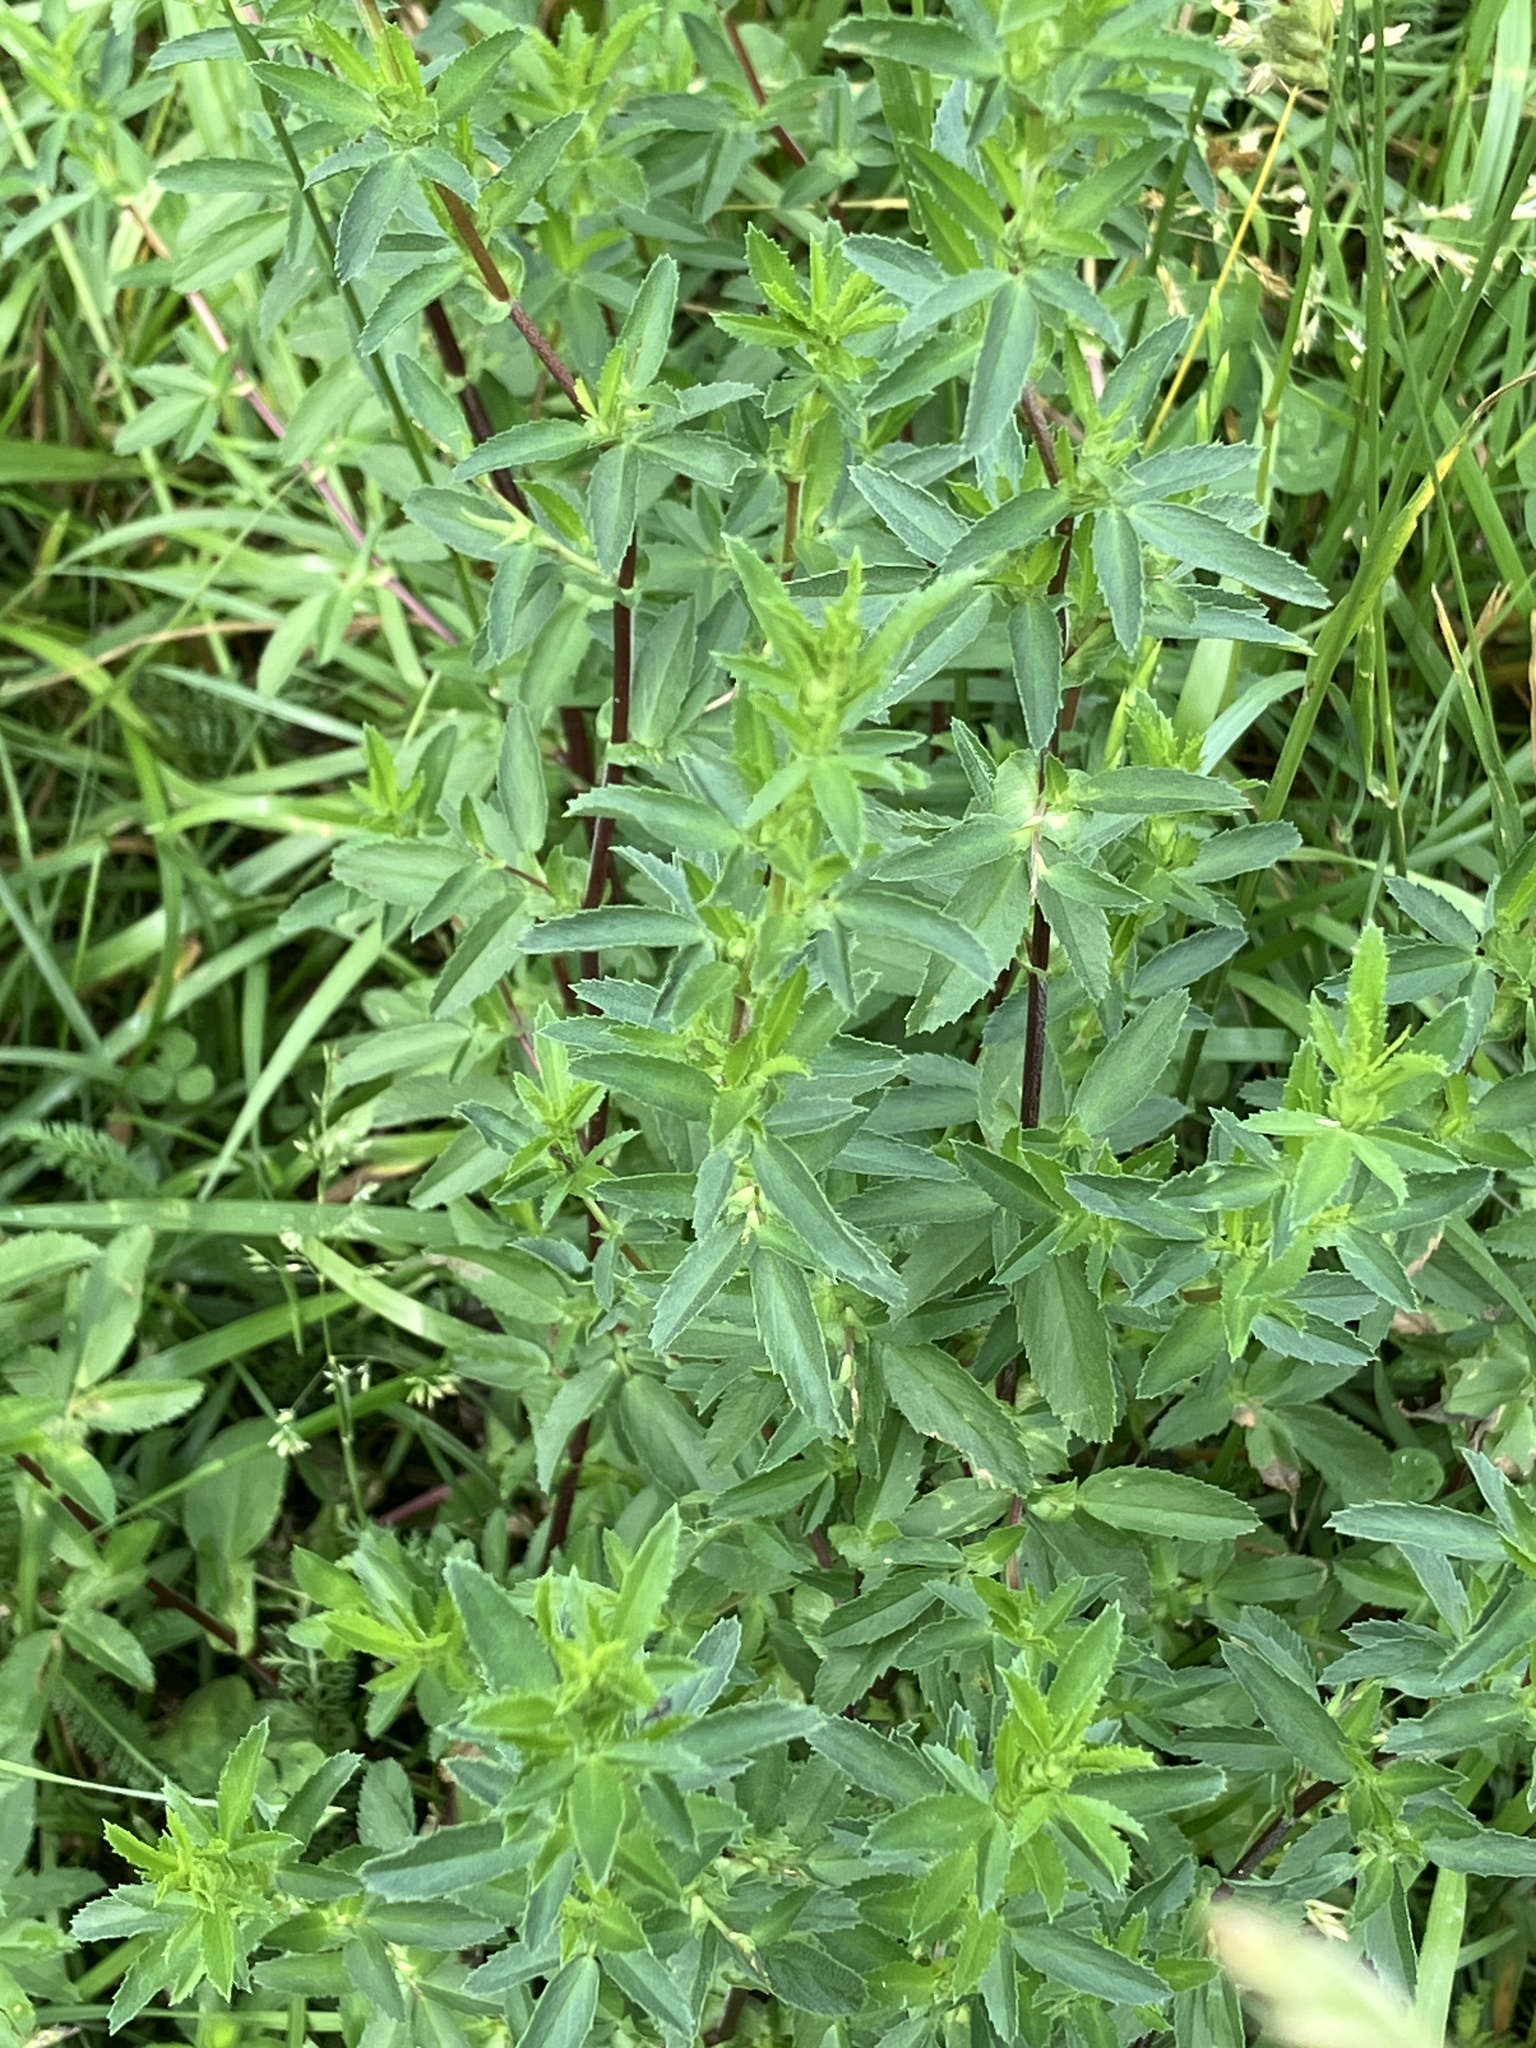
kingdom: Plantae
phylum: Tracheophyta
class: Magnoliopsida
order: Fabales
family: Fabaceae
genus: Ononis
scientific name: Ononis spinosa
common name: Spiny restharrow
